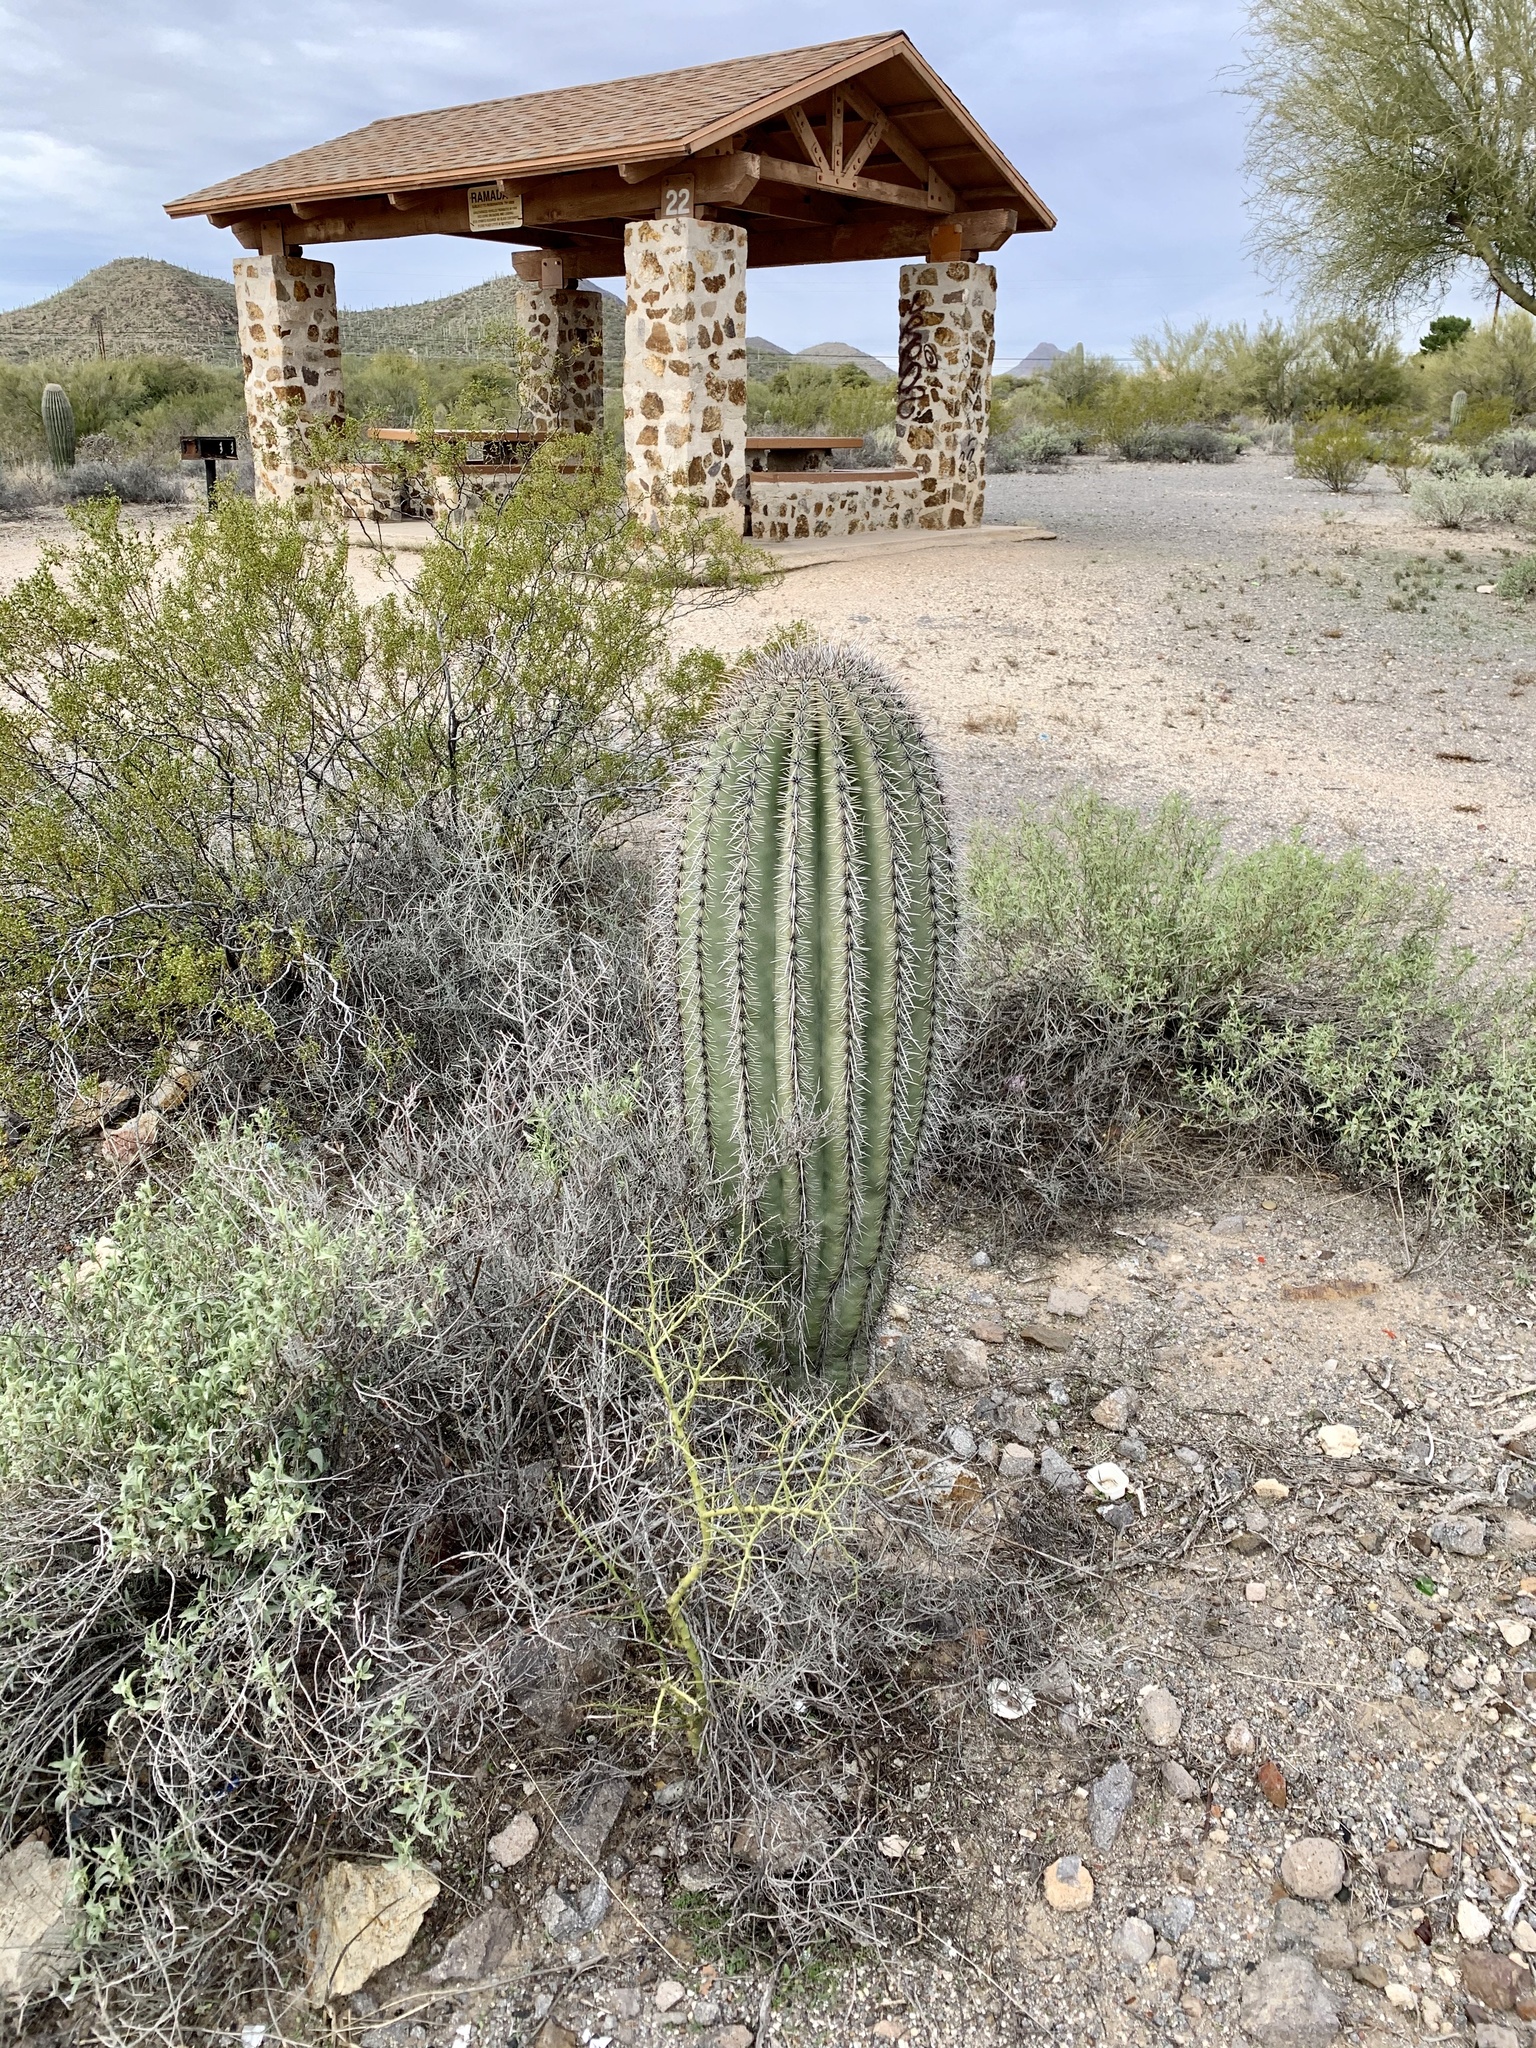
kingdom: Plantae
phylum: Tracheophyta
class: Magnoliopsida
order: Caryophyllales
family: Cactaceae
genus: Carnegiea
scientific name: Carnegiea gigantea
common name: Saguaro
